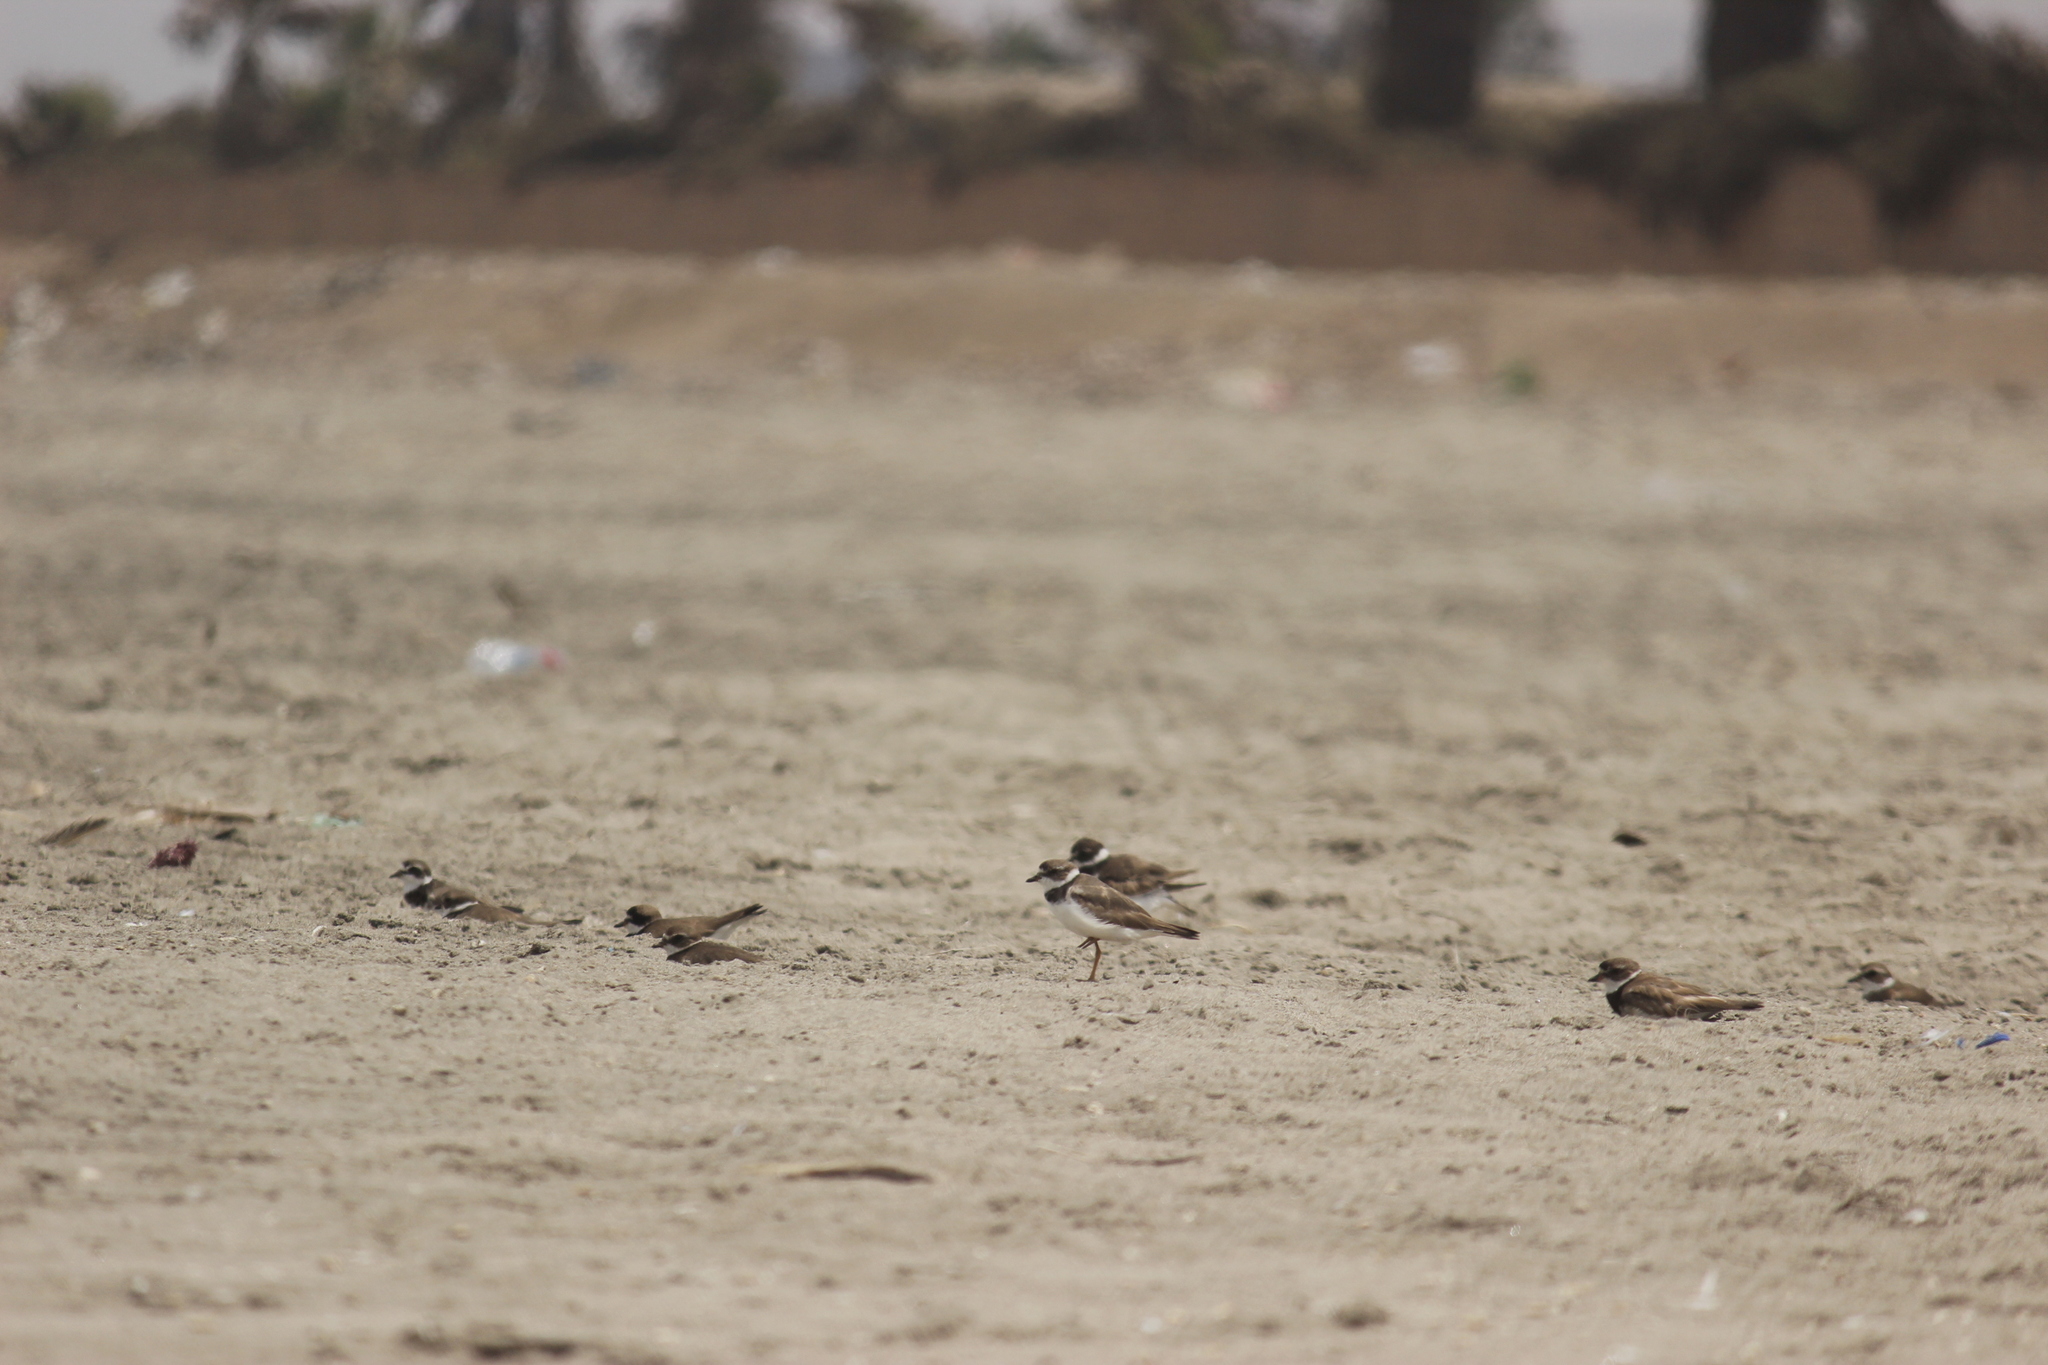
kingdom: Animalia
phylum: Chordata
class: Aves
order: Charadriiformes
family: Charadriidae
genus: Charadrius
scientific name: Charadrius semipalmatus
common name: Semipalmated plover
